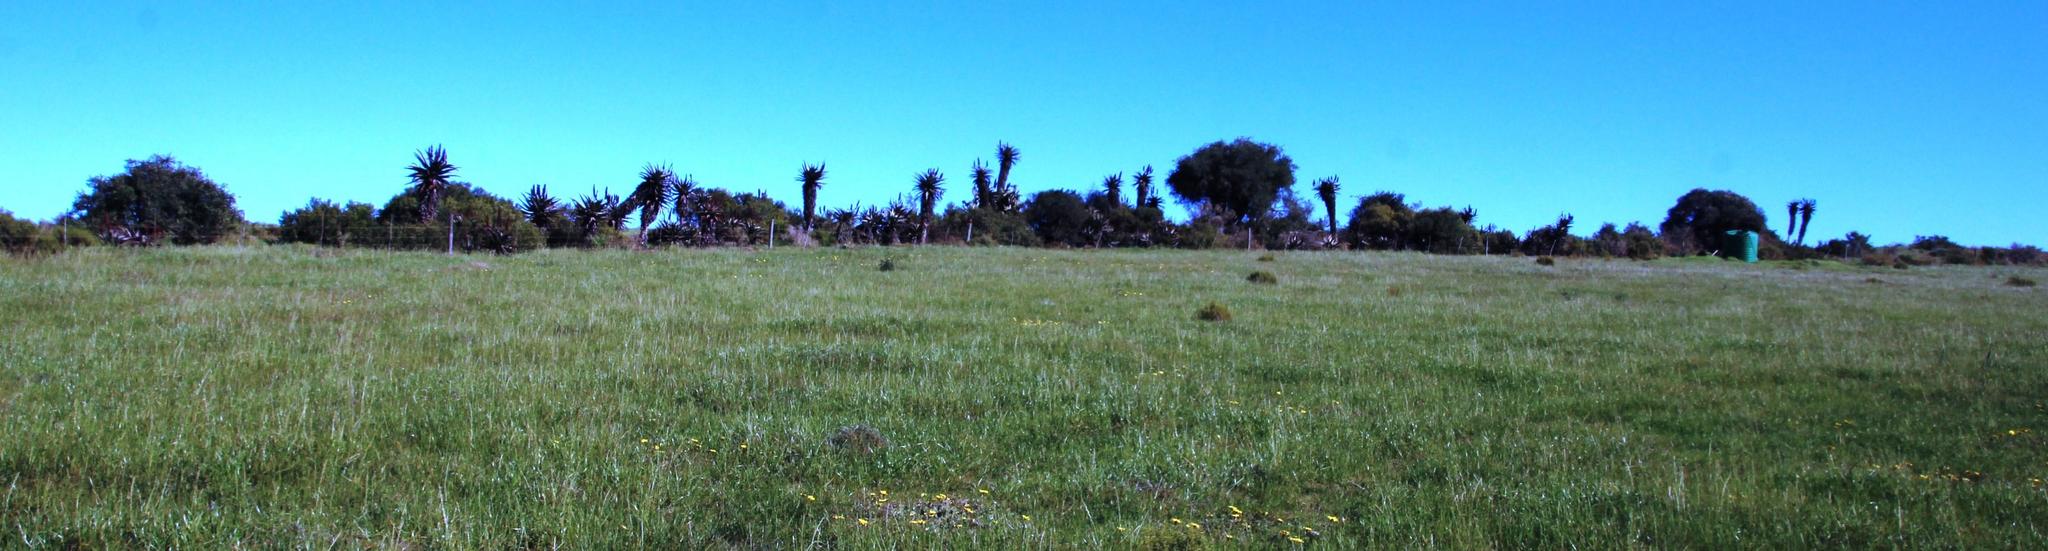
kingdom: Plantae
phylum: Tracheophyta
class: Liliopsida
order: Asparagales
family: Asphodelaceae
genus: Aloe
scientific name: Aloe ferox
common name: Bitter aloe
